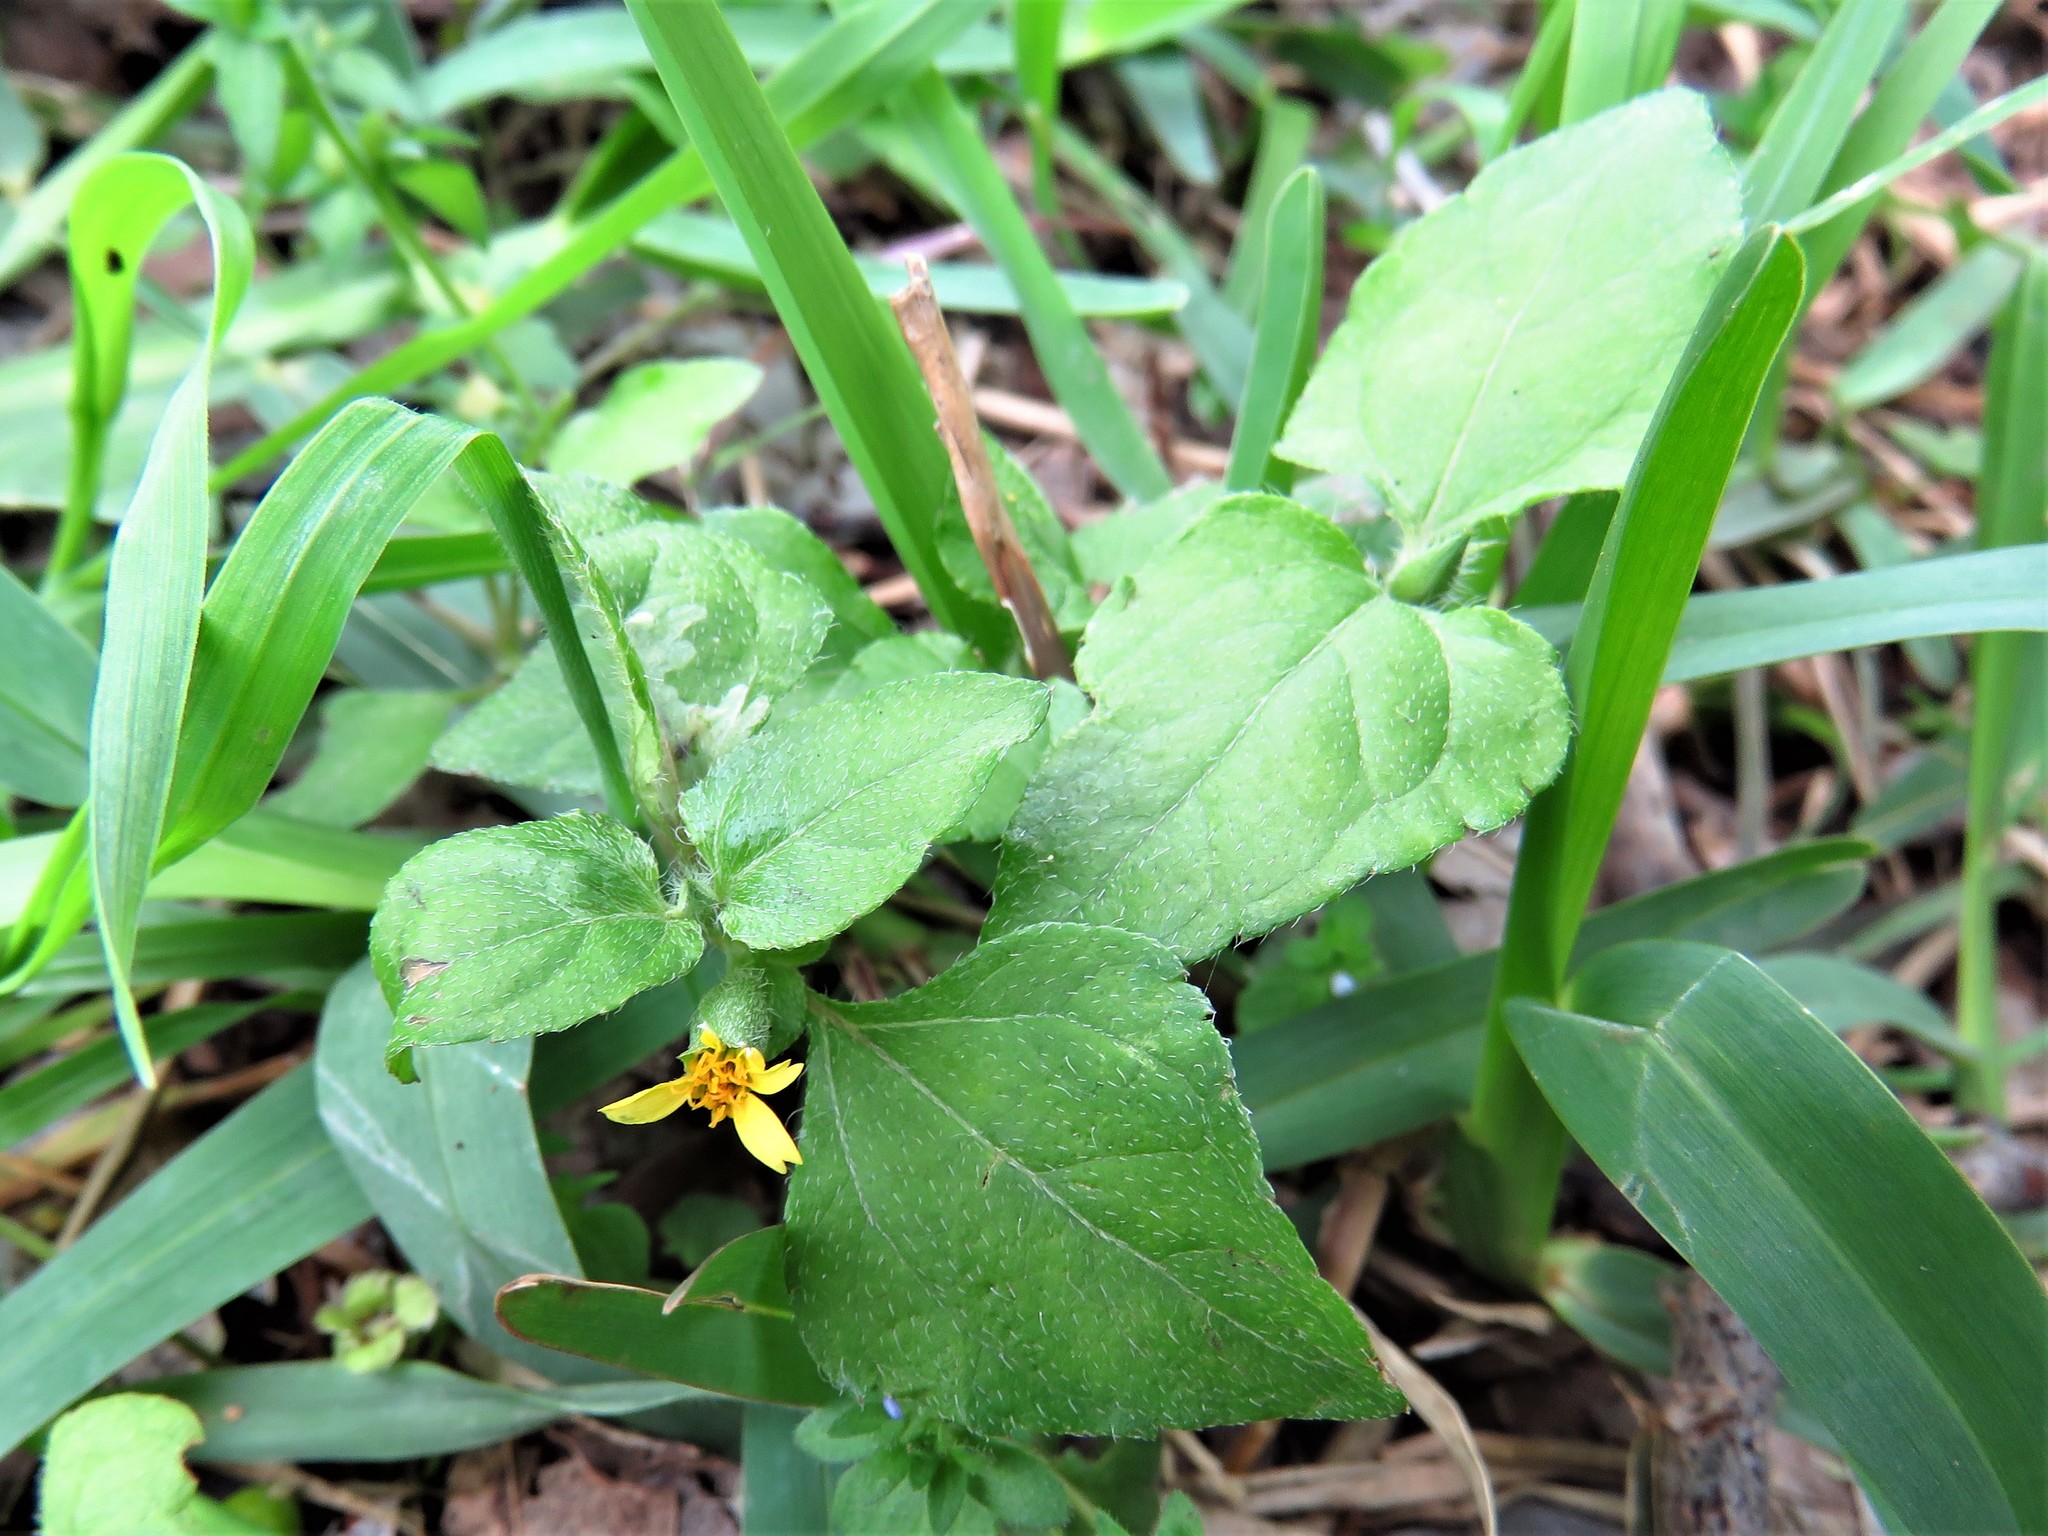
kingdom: Plantae
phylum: Tracheophyta
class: Magnoliopsida
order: Asterales
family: Asteraceae
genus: Calyptocarpus
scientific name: Calyptocarpus vialis
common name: Straggler daisy
